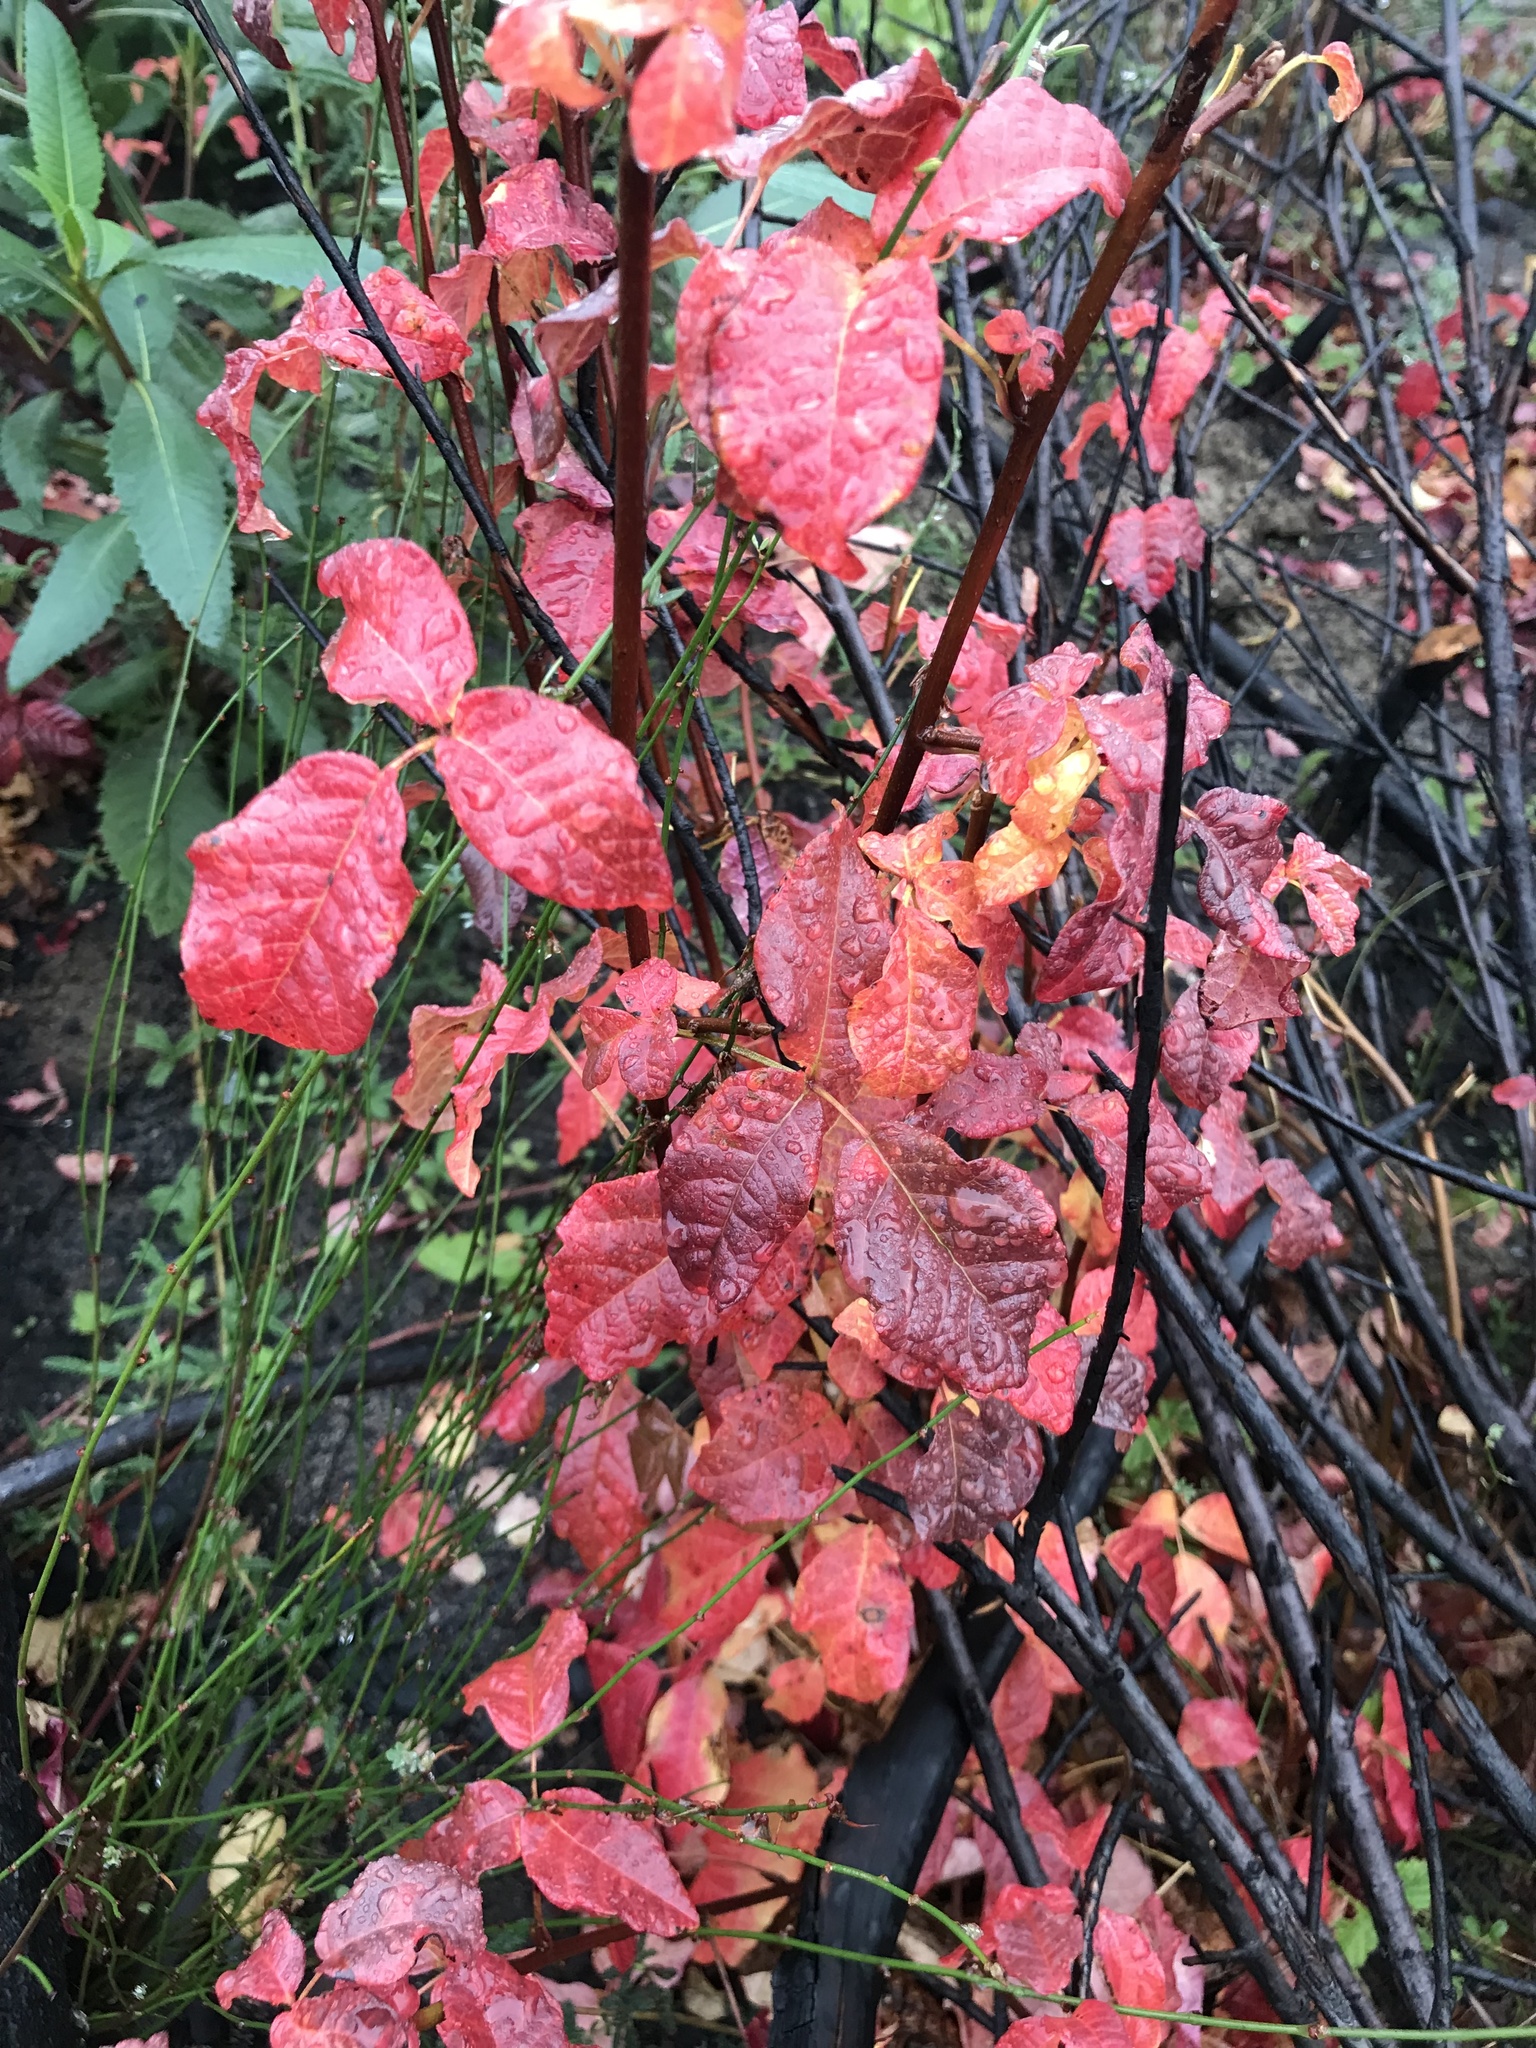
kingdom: Plantae
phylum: Tracheophyta
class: Magnoliopsida
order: Sapindales
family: Anacardiaceae
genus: Toxicodendron
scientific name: Toxicodendron diversilobum
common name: Pacific poison-oak
